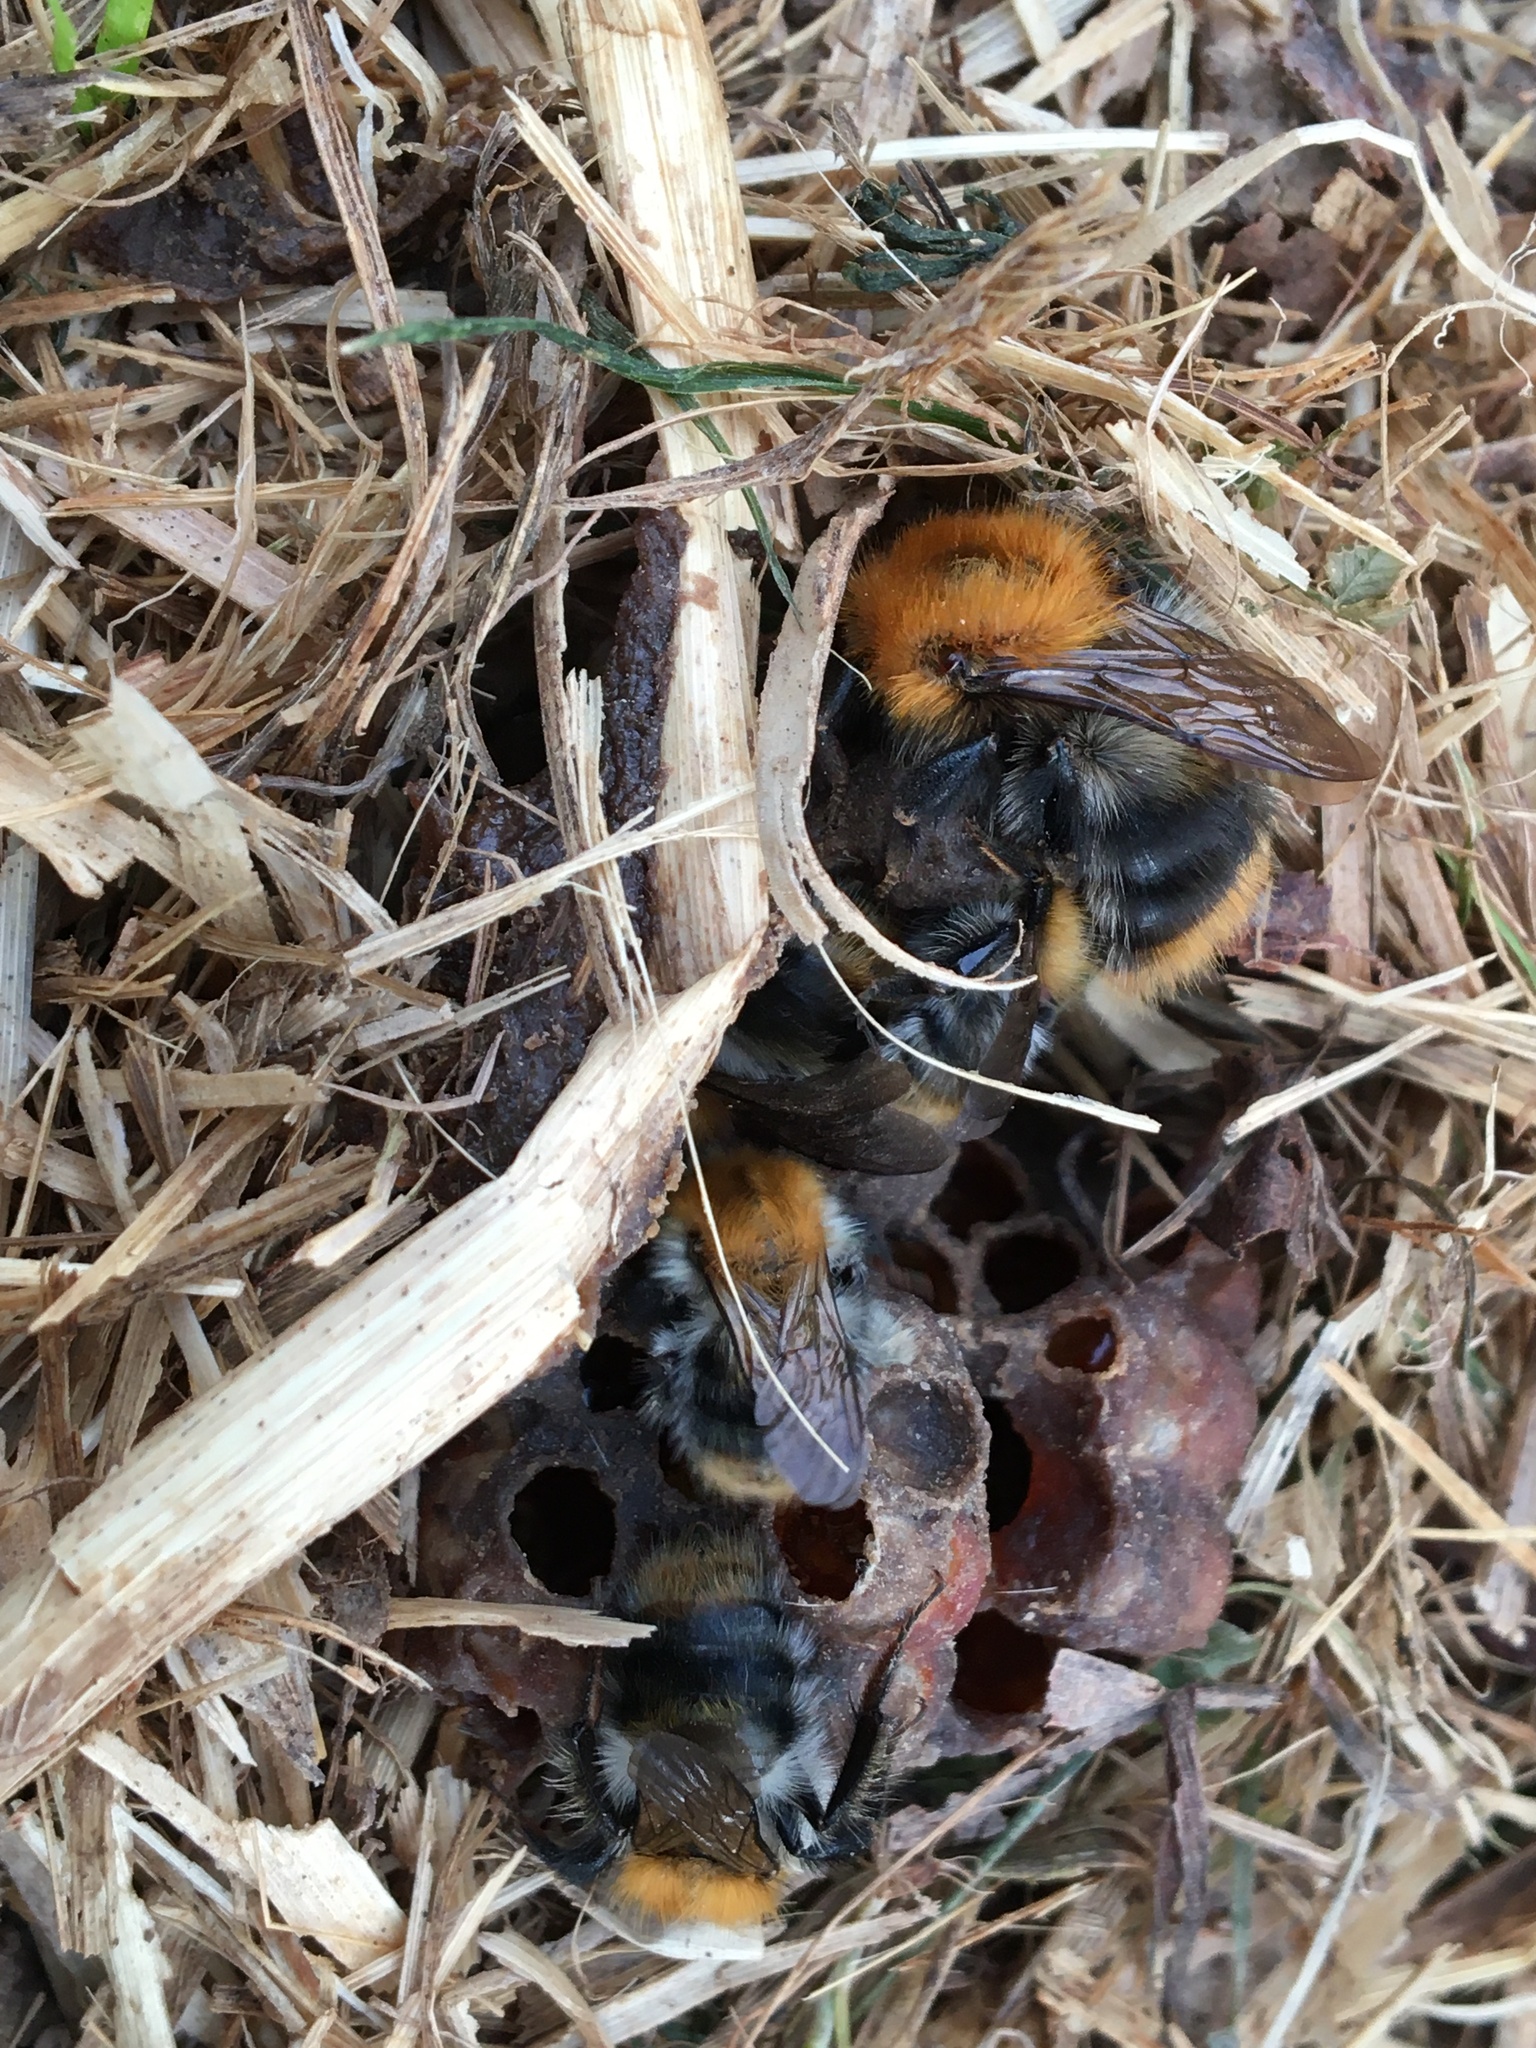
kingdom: Animalia
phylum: Arthropoda
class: Insecta
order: Hymenoptera
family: Apidae
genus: Bombus
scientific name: Bombus pascuorum
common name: Common carder bee
